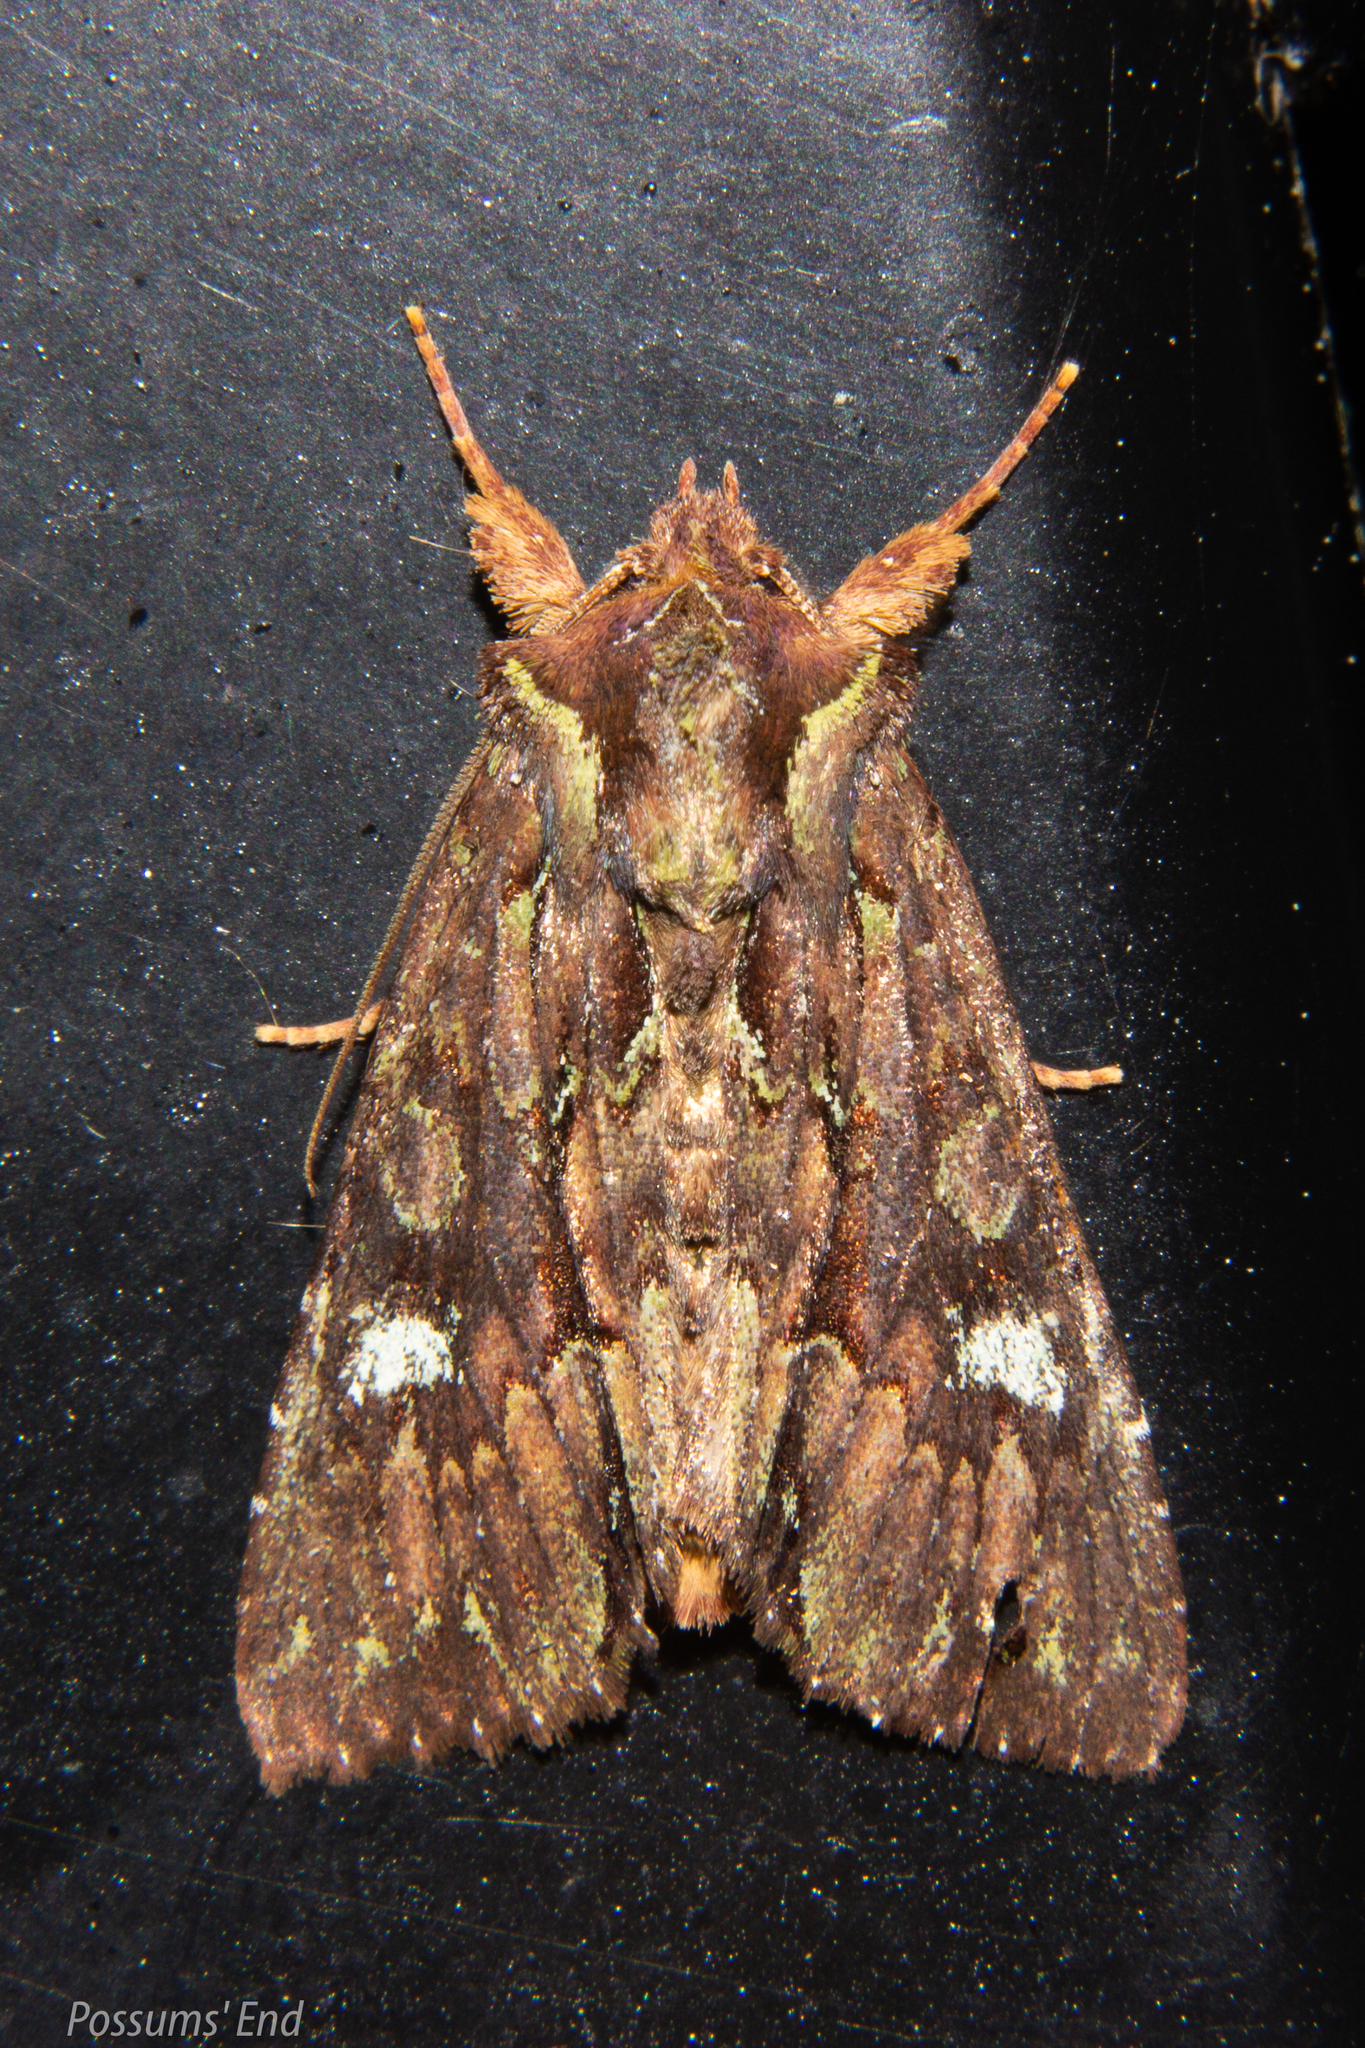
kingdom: Animalia
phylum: Arthropoda
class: Insecta
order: Lepidoptera
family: Noctuidae
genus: Meterana
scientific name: Meterana diatmeta
